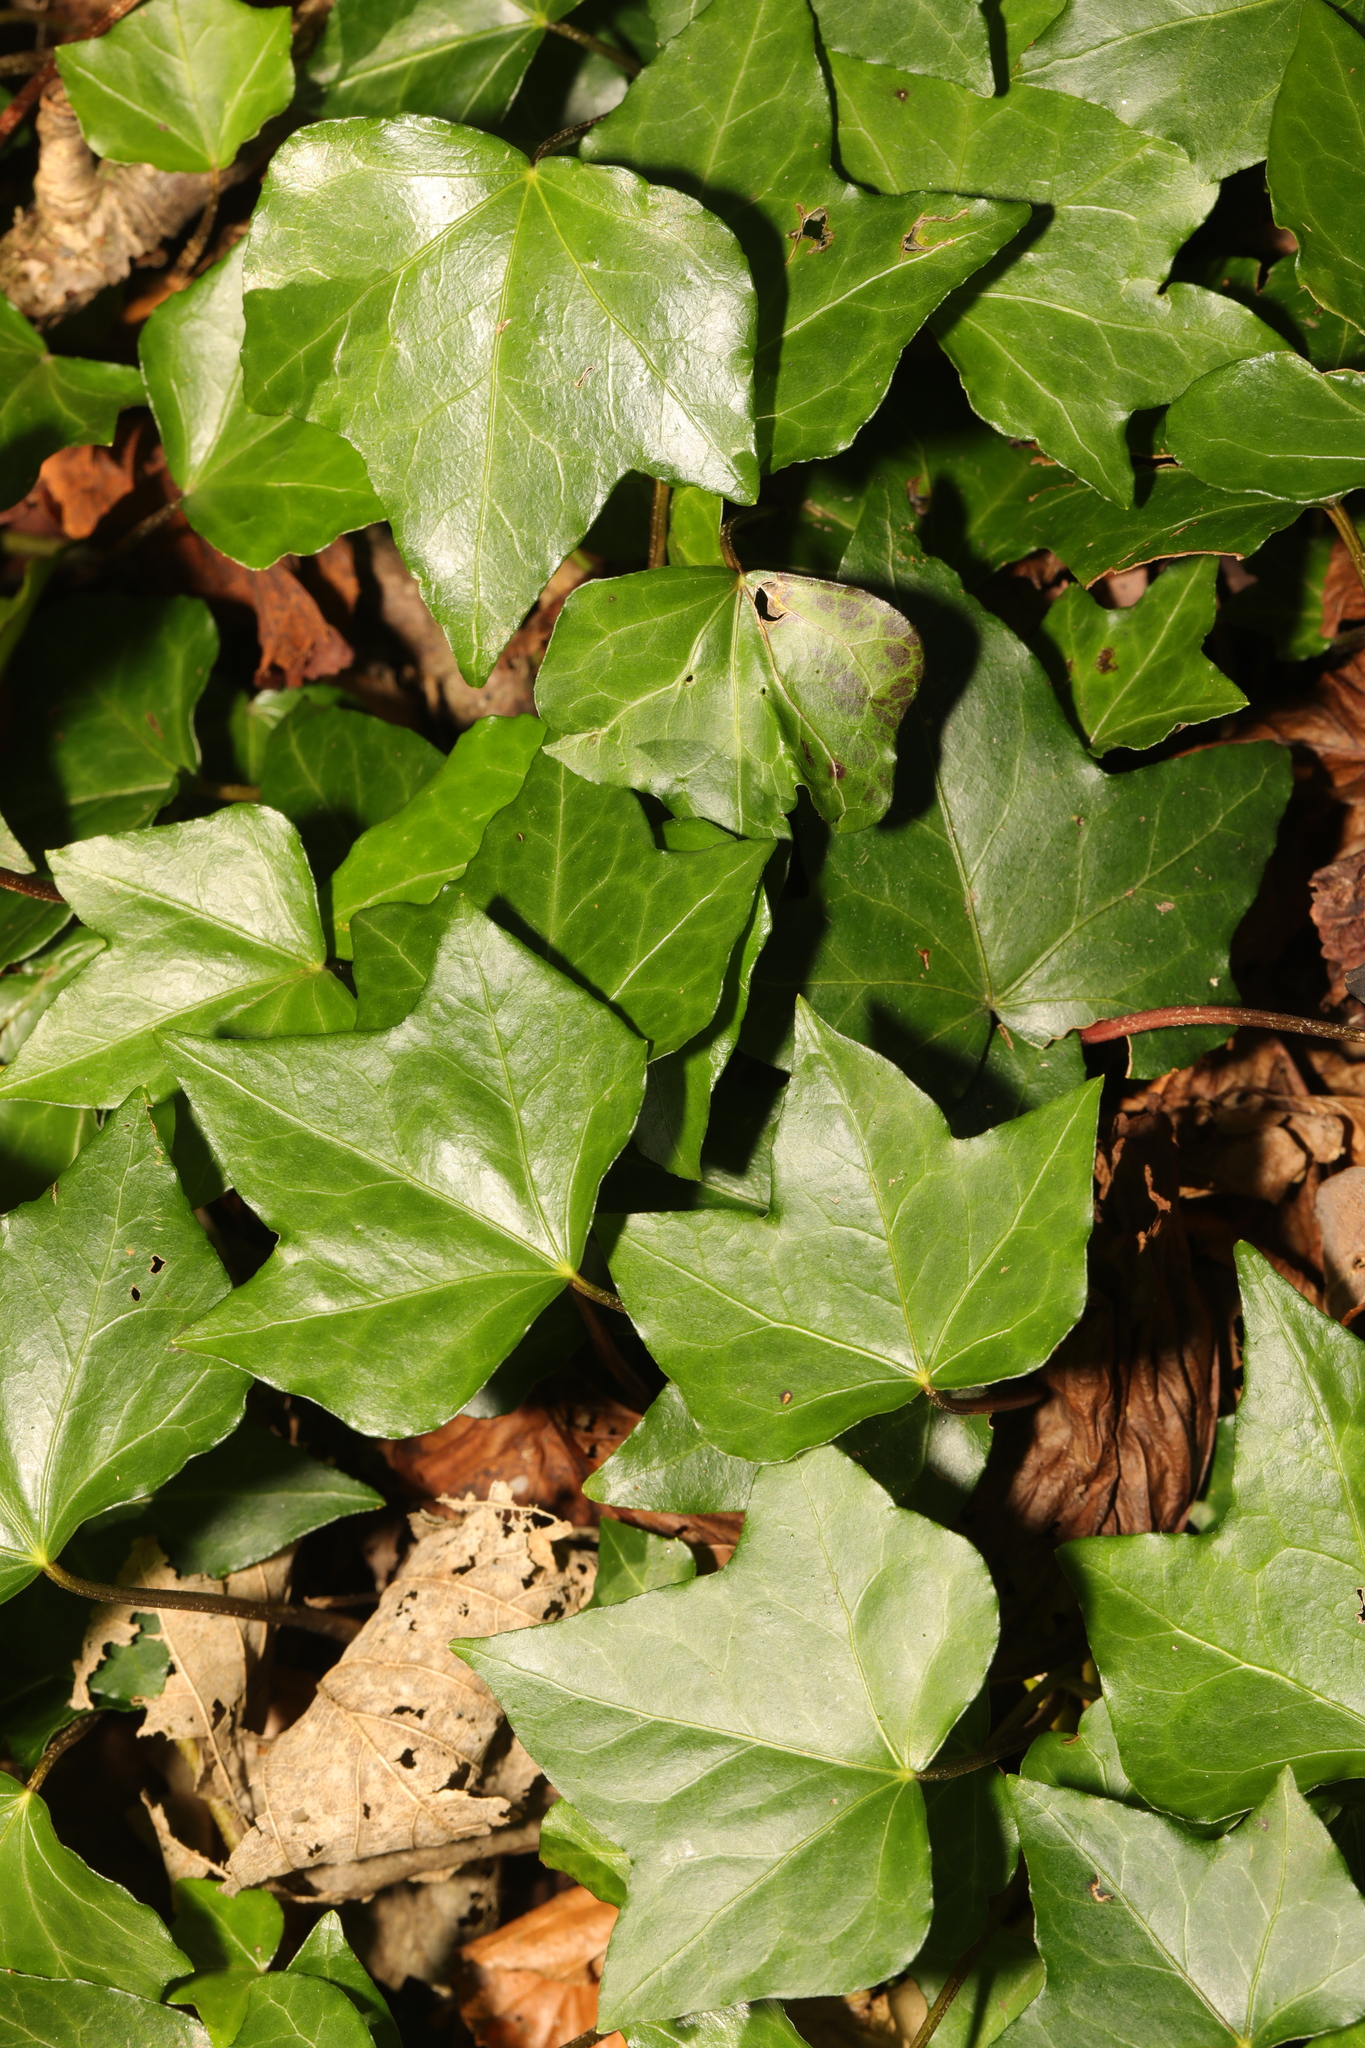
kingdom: Plantae
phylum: Tracheophyta
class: Magnoliopsida
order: Apiales
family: Araliaceae
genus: Hedera
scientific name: Hedera helix
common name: Ivy
